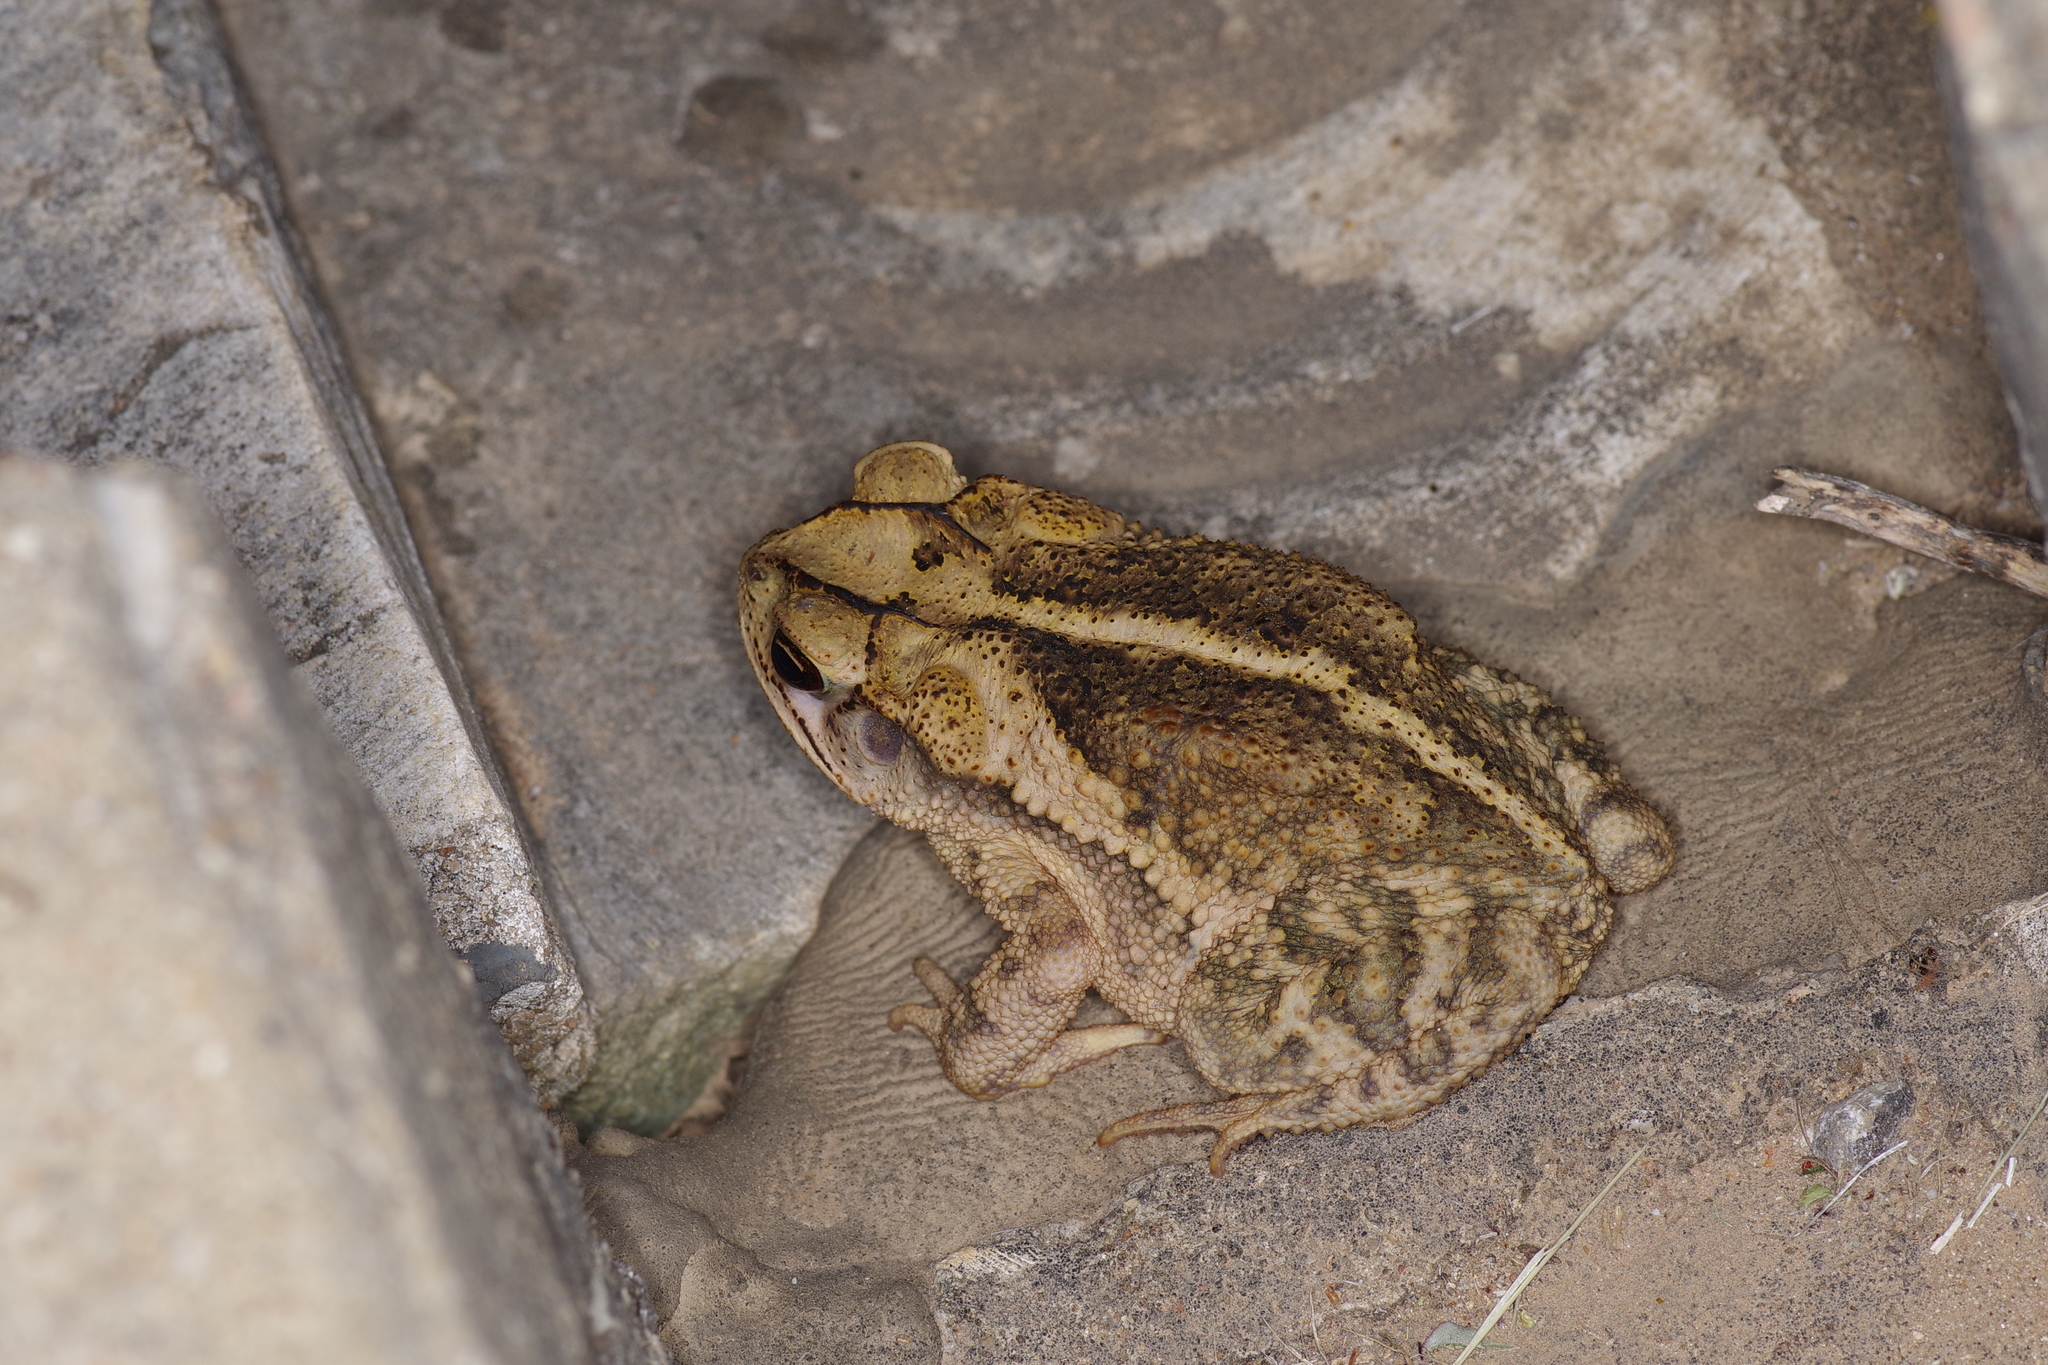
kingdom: Animalia
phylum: Chordata
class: Amphibia
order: Anura
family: Bufonidae
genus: Incilius
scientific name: Incilius nebulifer
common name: Gulf coast toad
